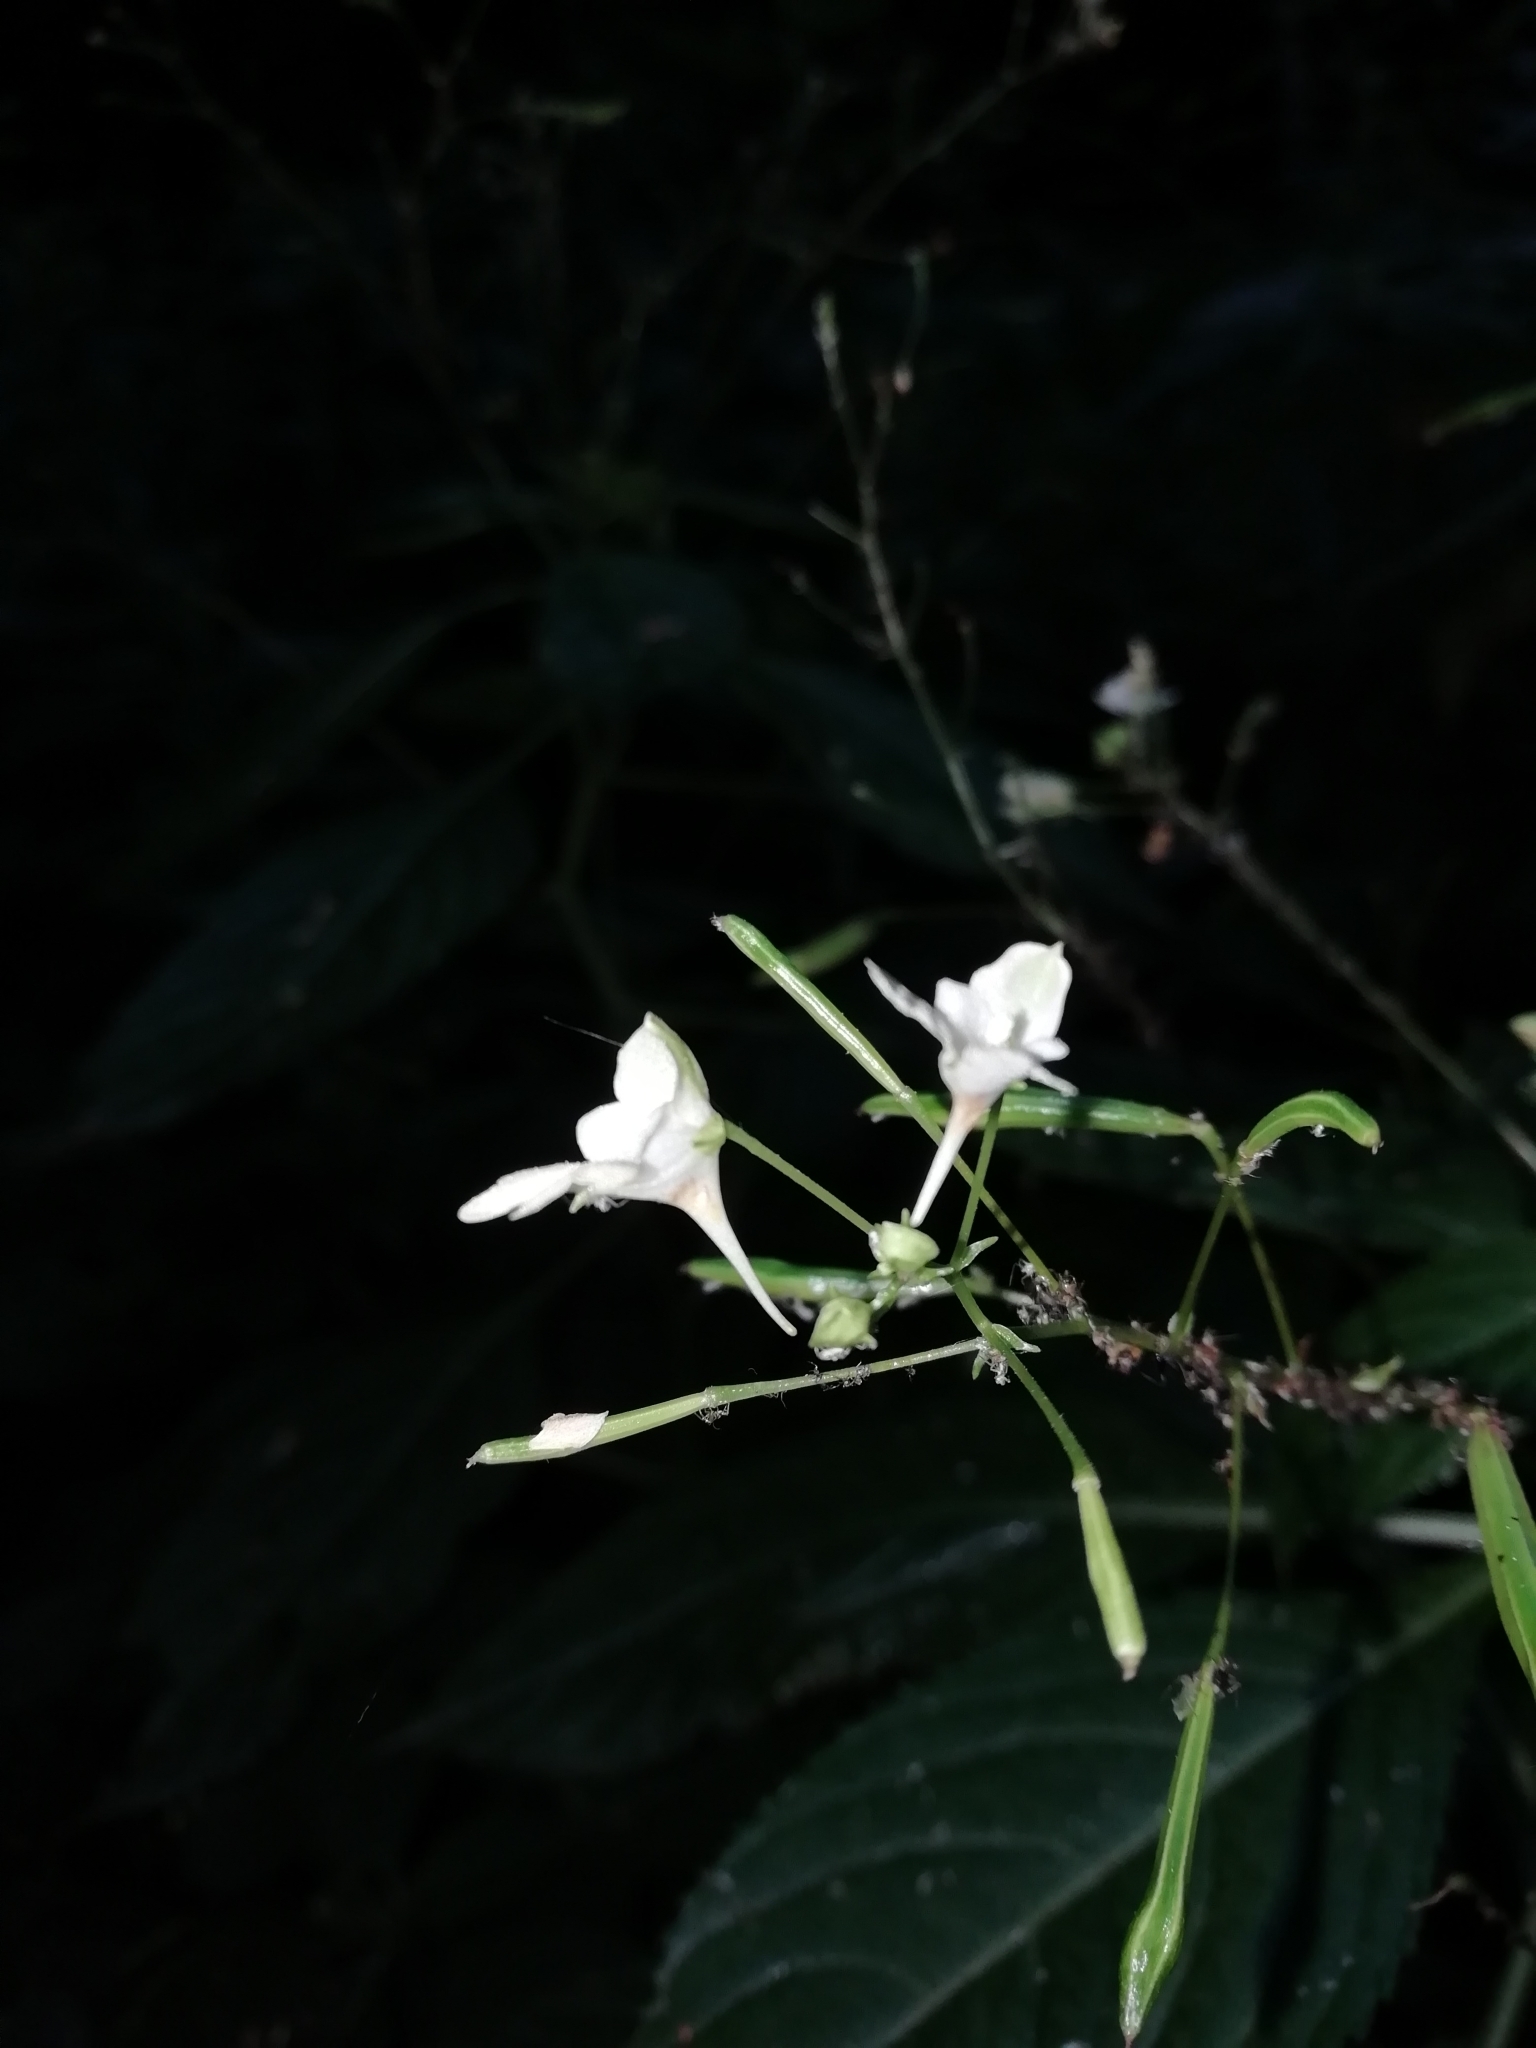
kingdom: Plantae
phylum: Tracheophyta
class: Magnoliopsida
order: Ericales
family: Balsaminaceae
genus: Impatiens
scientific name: Impatiens parviflora
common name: Small balsam
